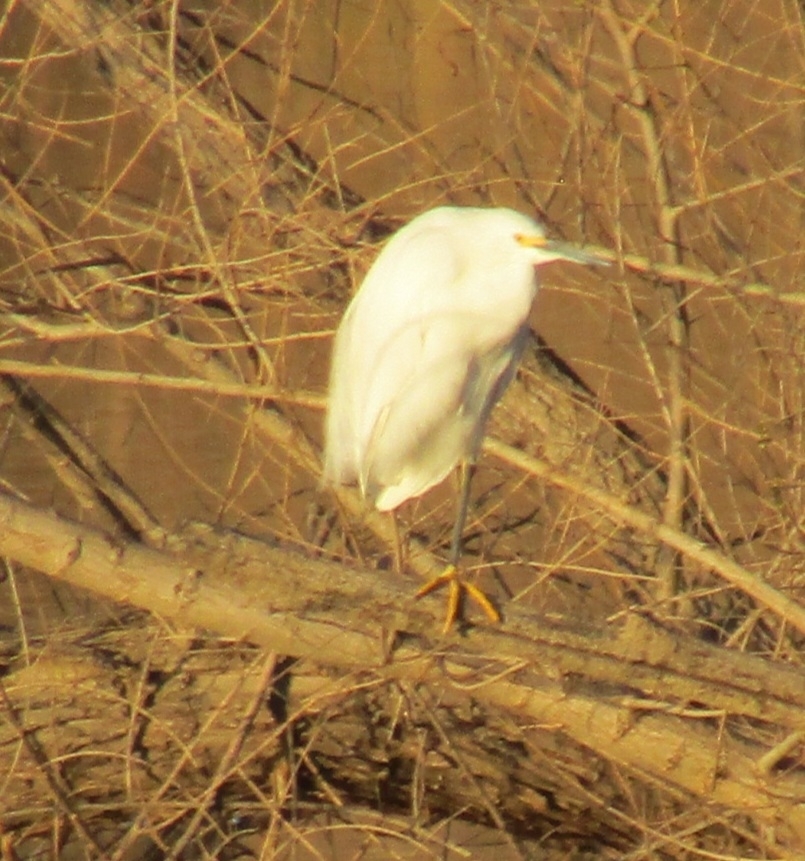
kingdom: Animalia
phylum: Chordata
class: Aves
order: Pelecaniformes
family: Ardeidae
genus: Egretta
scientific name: Egretta thula
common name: Snowy egret
